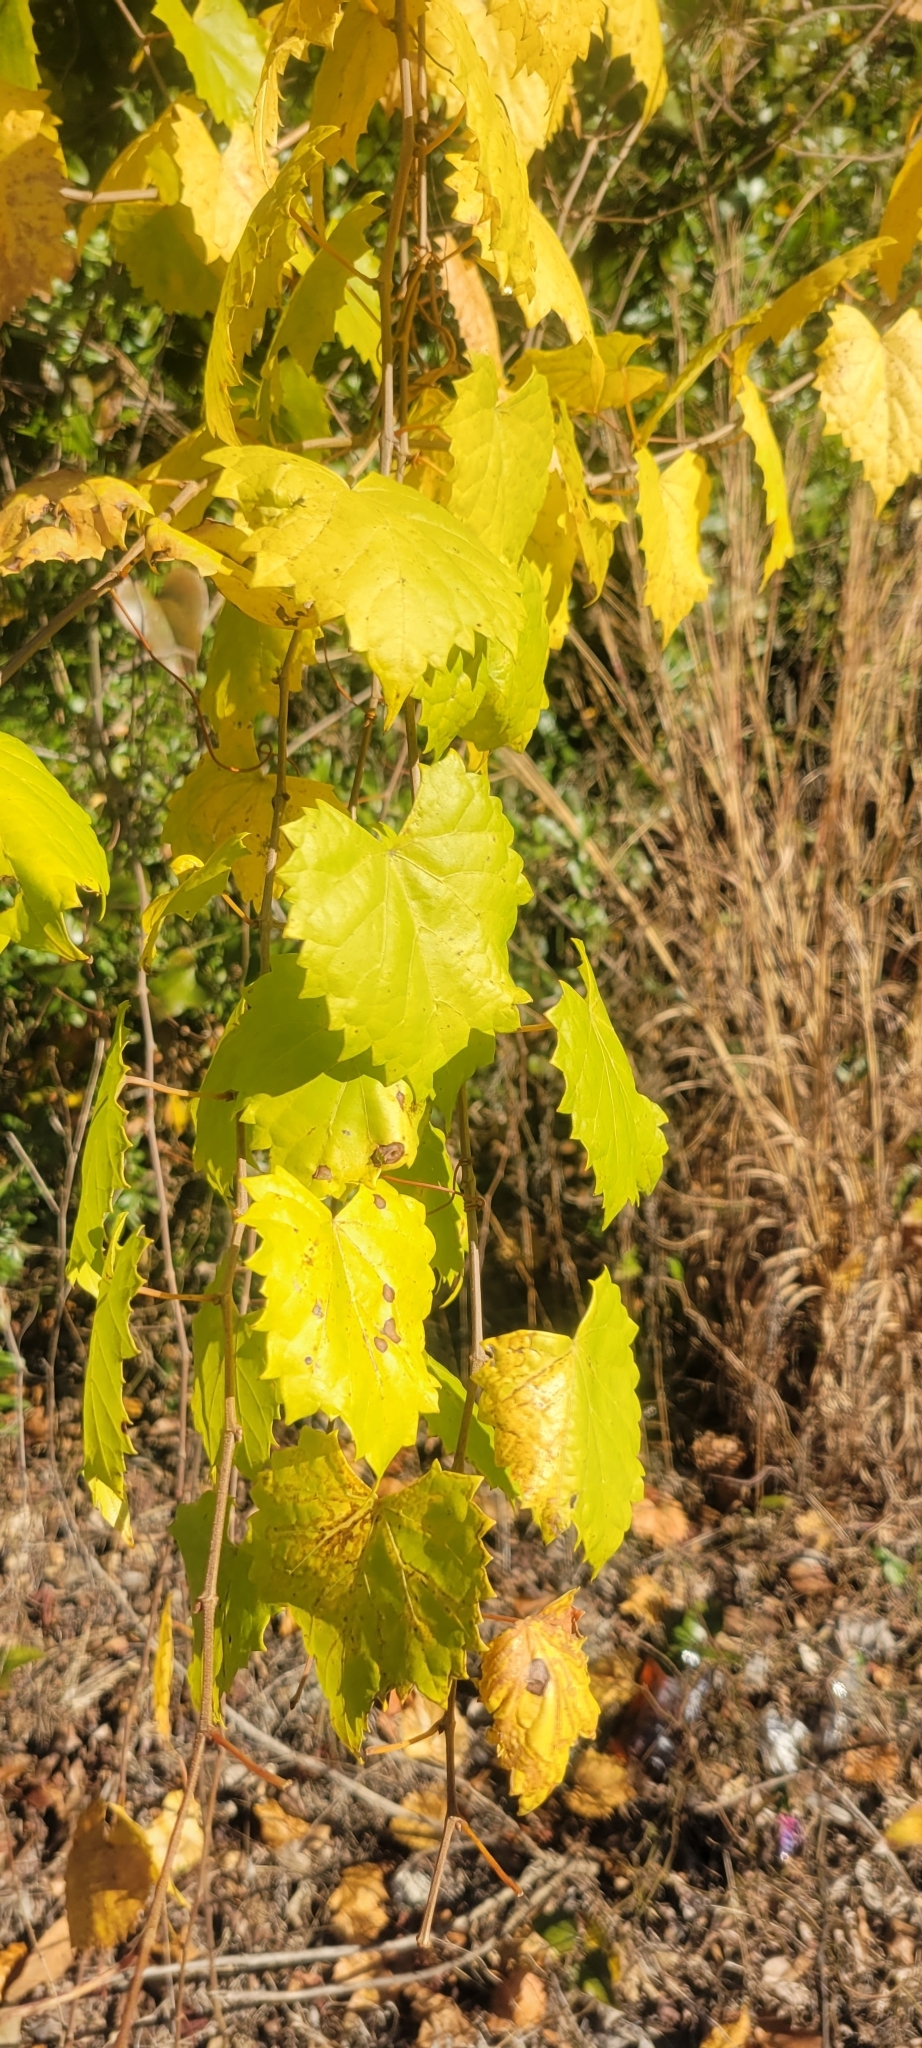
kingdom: Plantae
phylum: Tracheophyta
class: Magnoliopsida
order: Vitales
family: Vitaceae
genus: Vitis
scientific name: Vitis rotundifolia
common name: Muscadine grape
